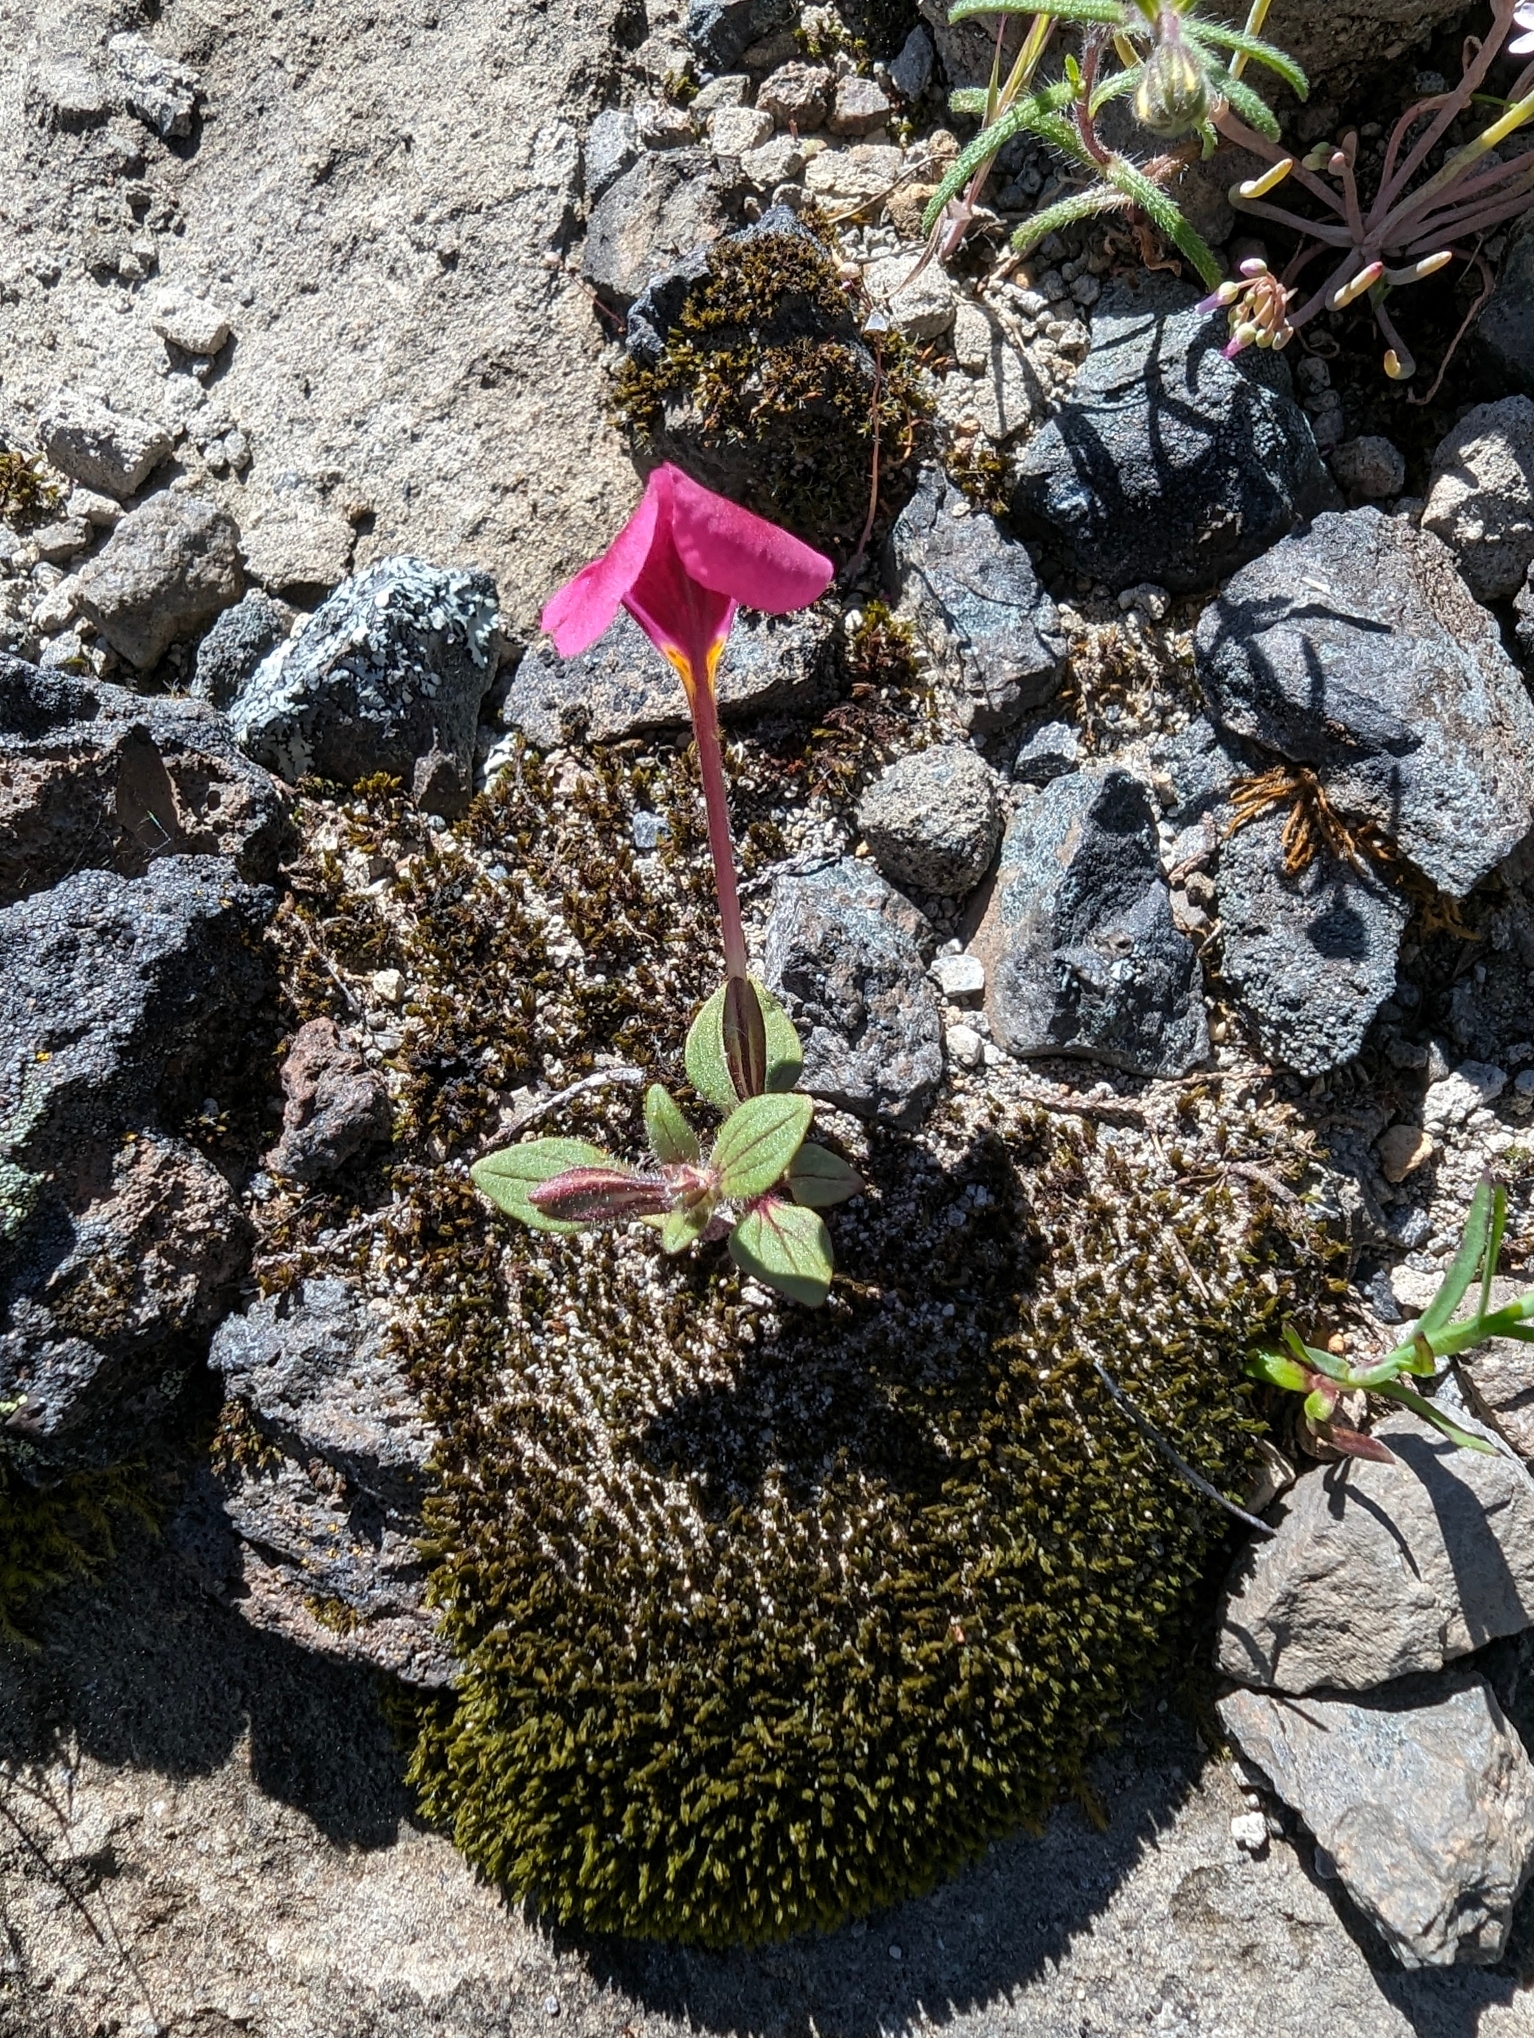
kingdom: Plantae
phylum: Tracheophyta
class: Magnoliopsida
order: Lamiales
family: Phrymaceae
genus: Diplacus
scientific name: Diplacus kelloggii
